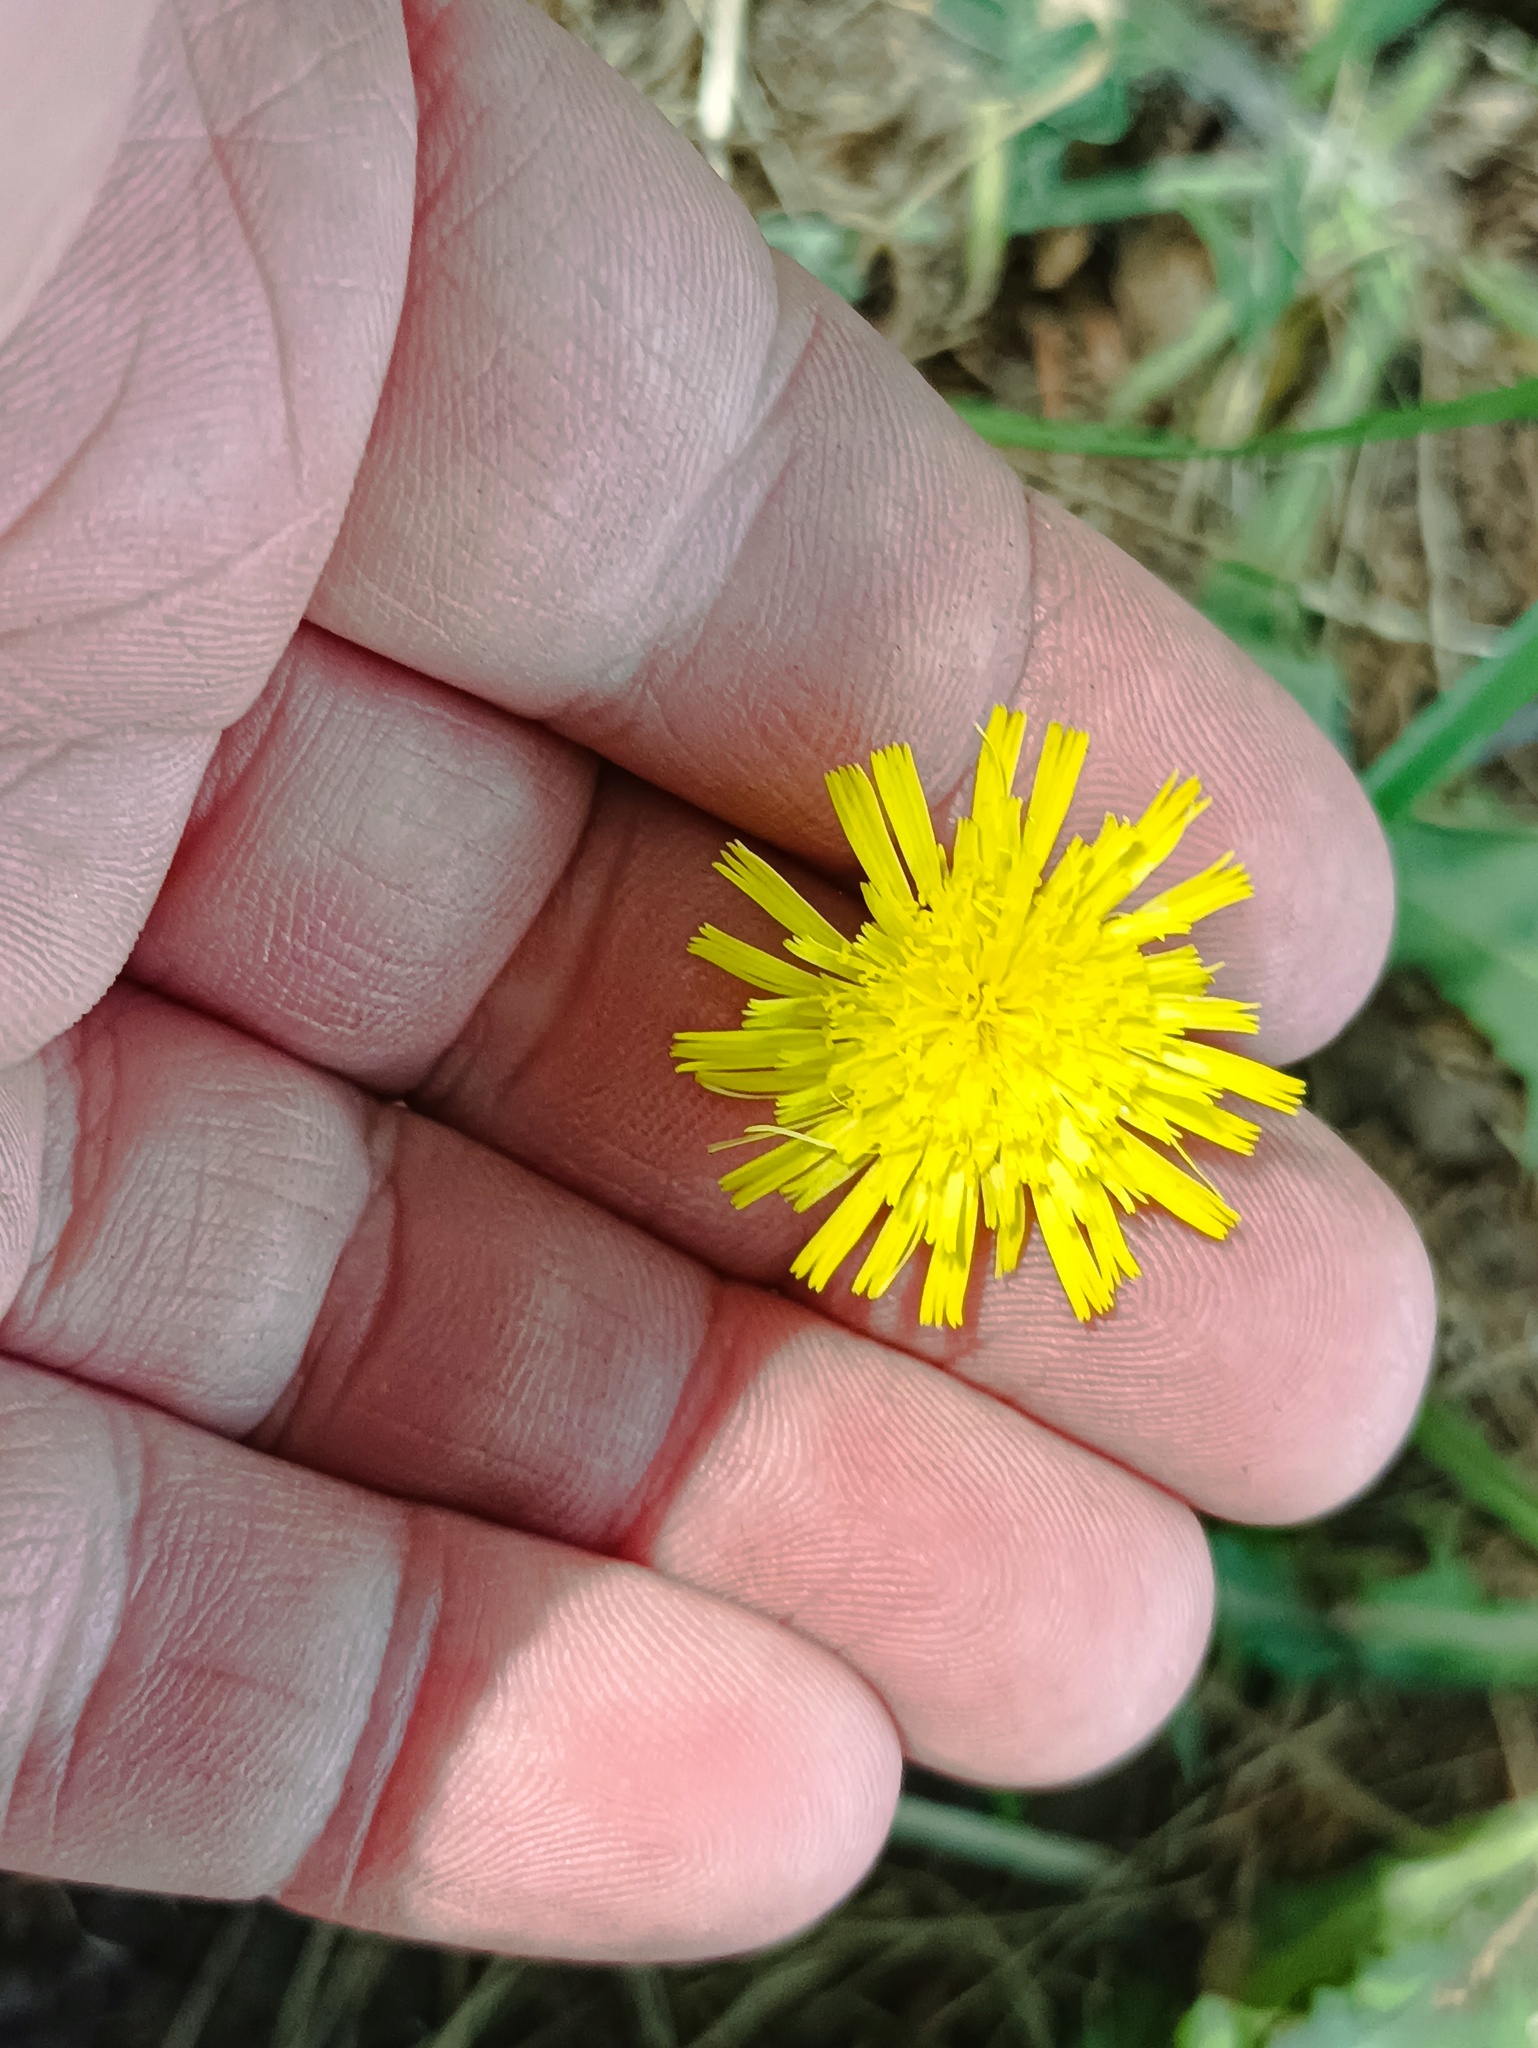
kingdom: Plantae
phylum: Tracheophyta
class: Magnoliopsida
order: Asterales
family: Asteraceae
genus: Pilosella
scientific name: Pilosella officinarum
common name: Mouse-ear hawkweed
